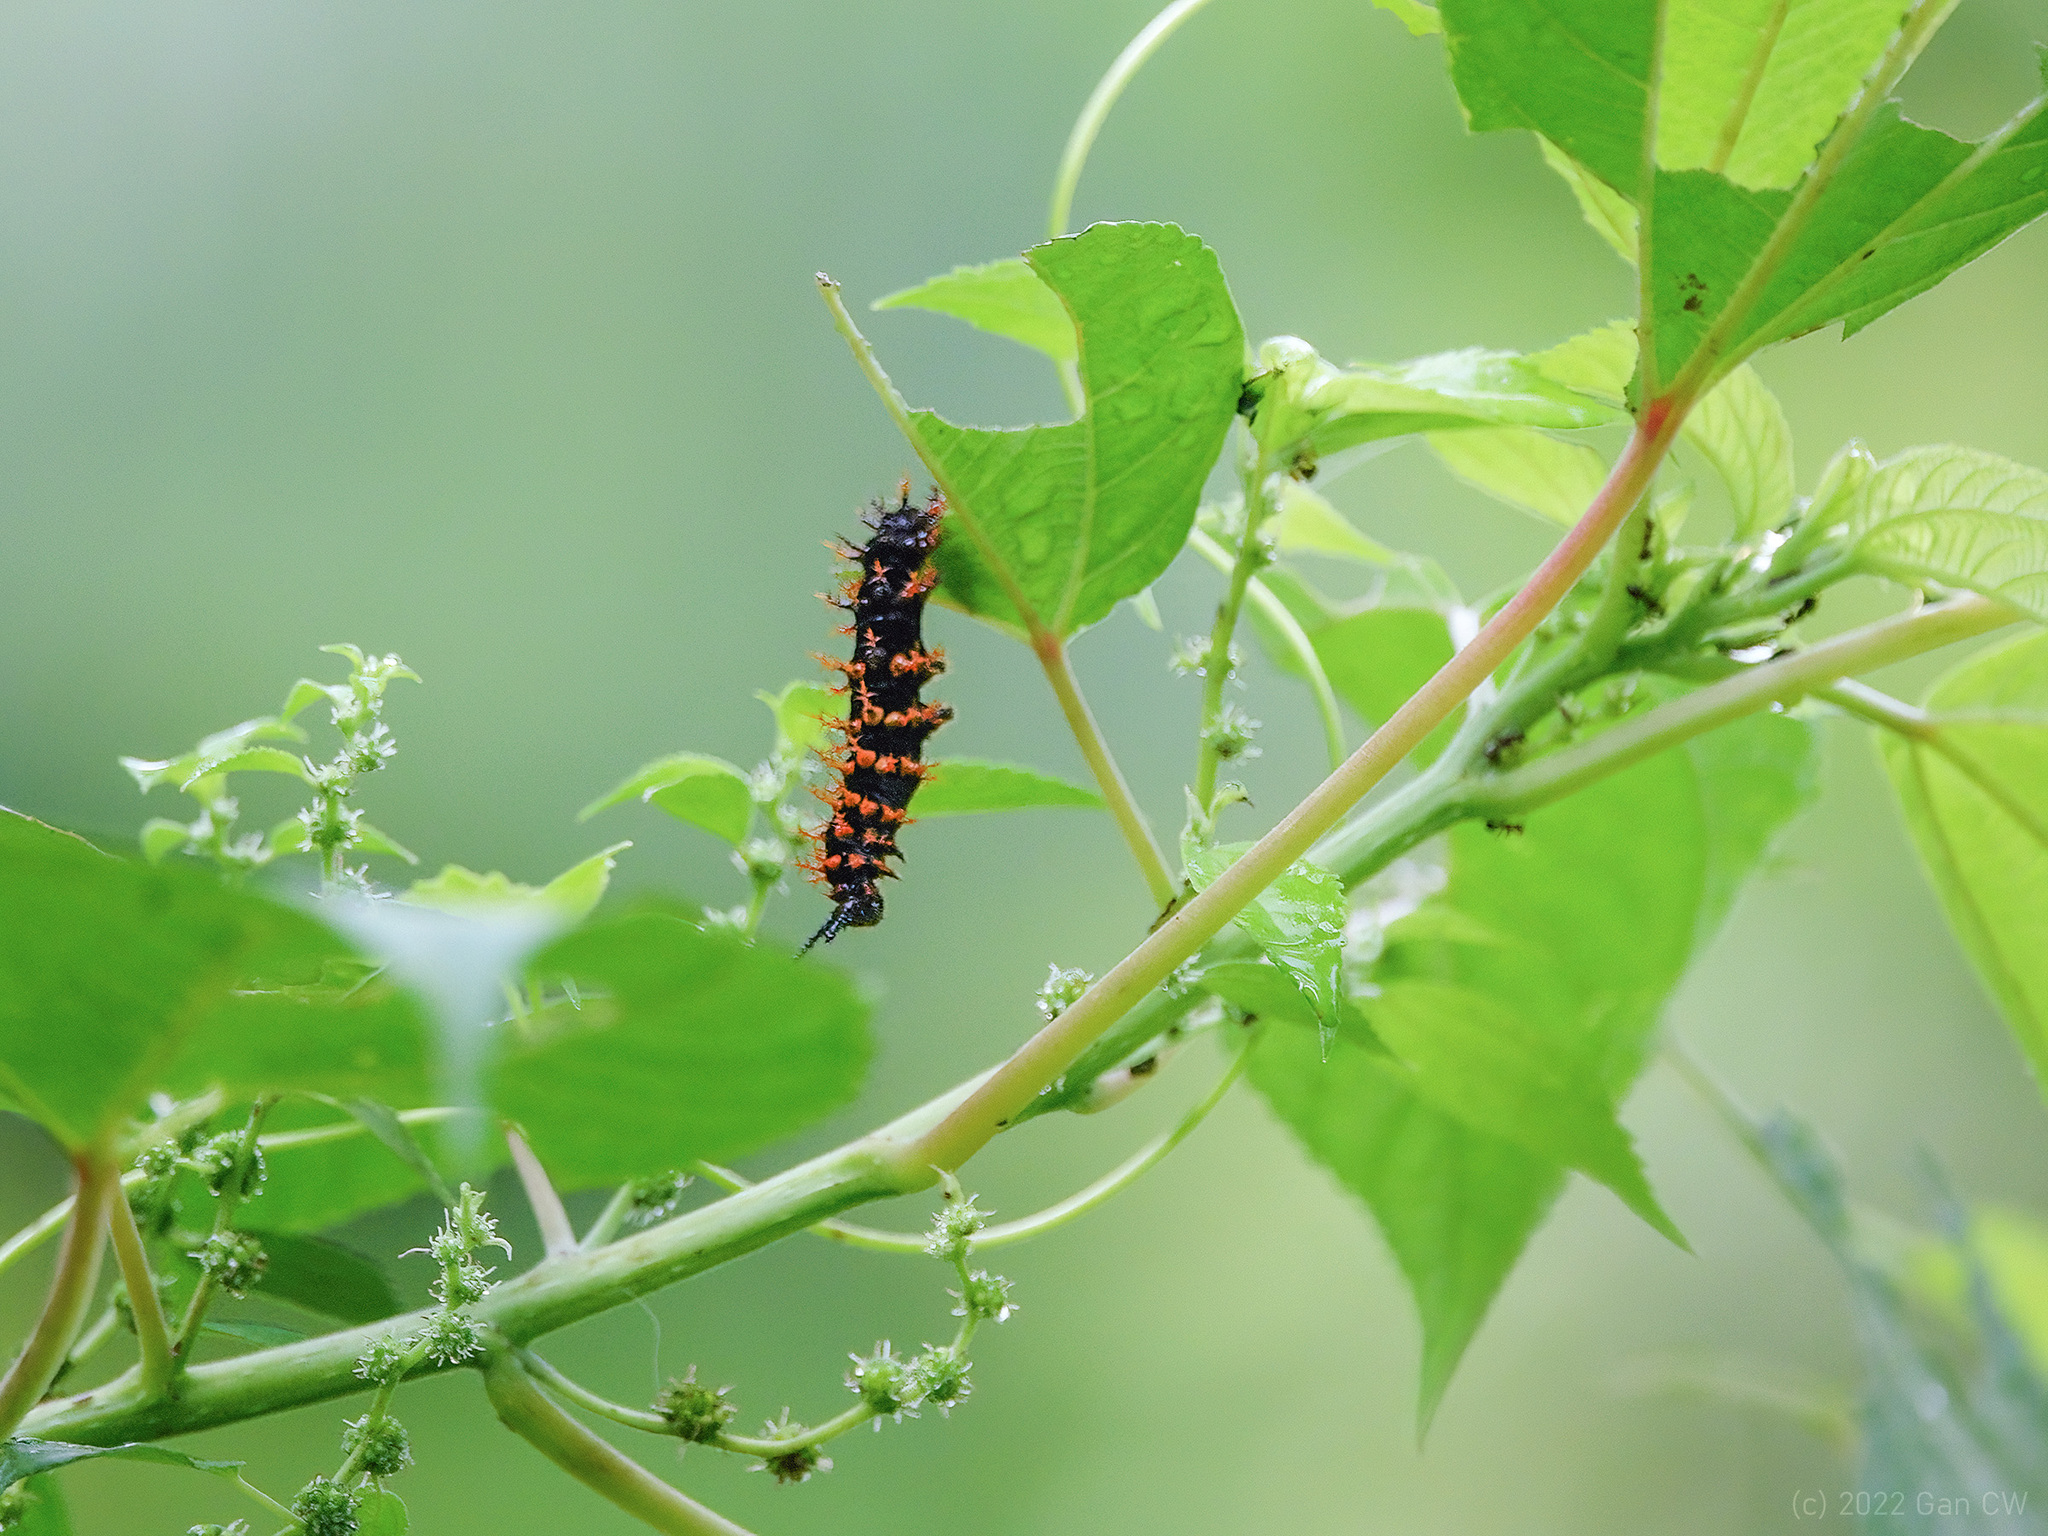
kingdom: Animalia
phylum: Arthropoda
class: Insecta
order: Lepidoptera
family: Nymphalidae
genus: Hypolimnas
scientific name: Hypolimnas anomala
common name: Malayan eggfly
